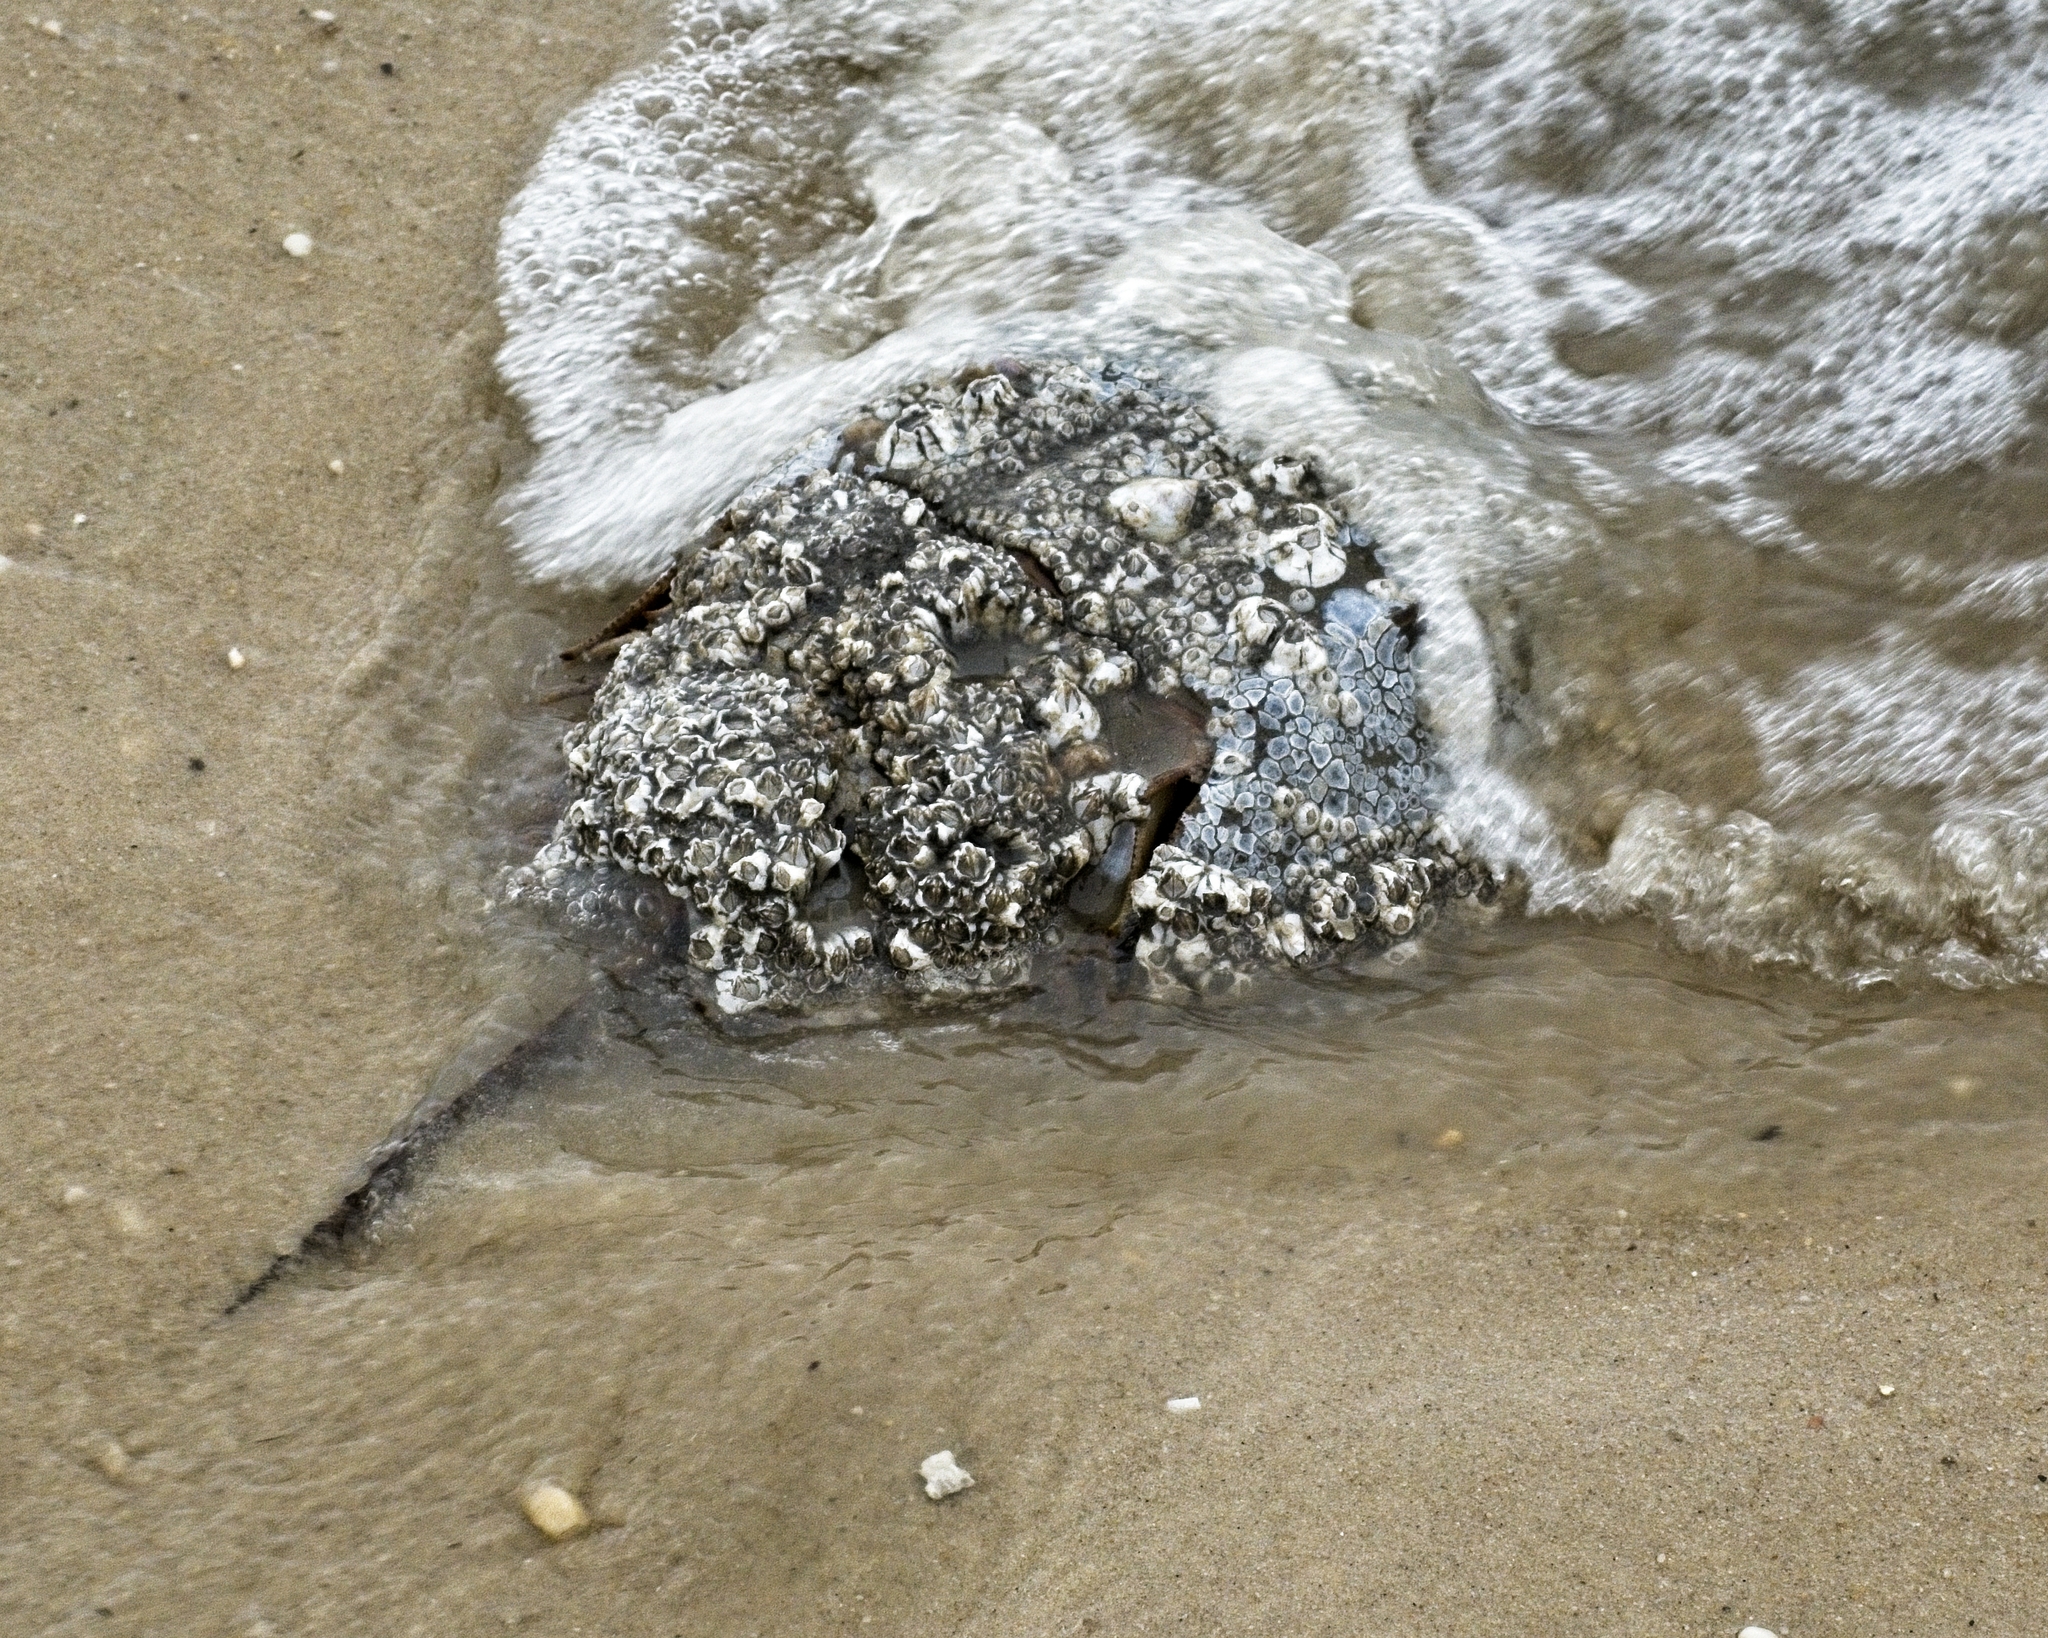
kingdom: Animalia
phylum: Arthropoda
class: Merostomata
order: Xiphosurida
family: Limulidae
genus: Limulus
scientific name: Limulus polyphemus
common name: Horseshoe crab
